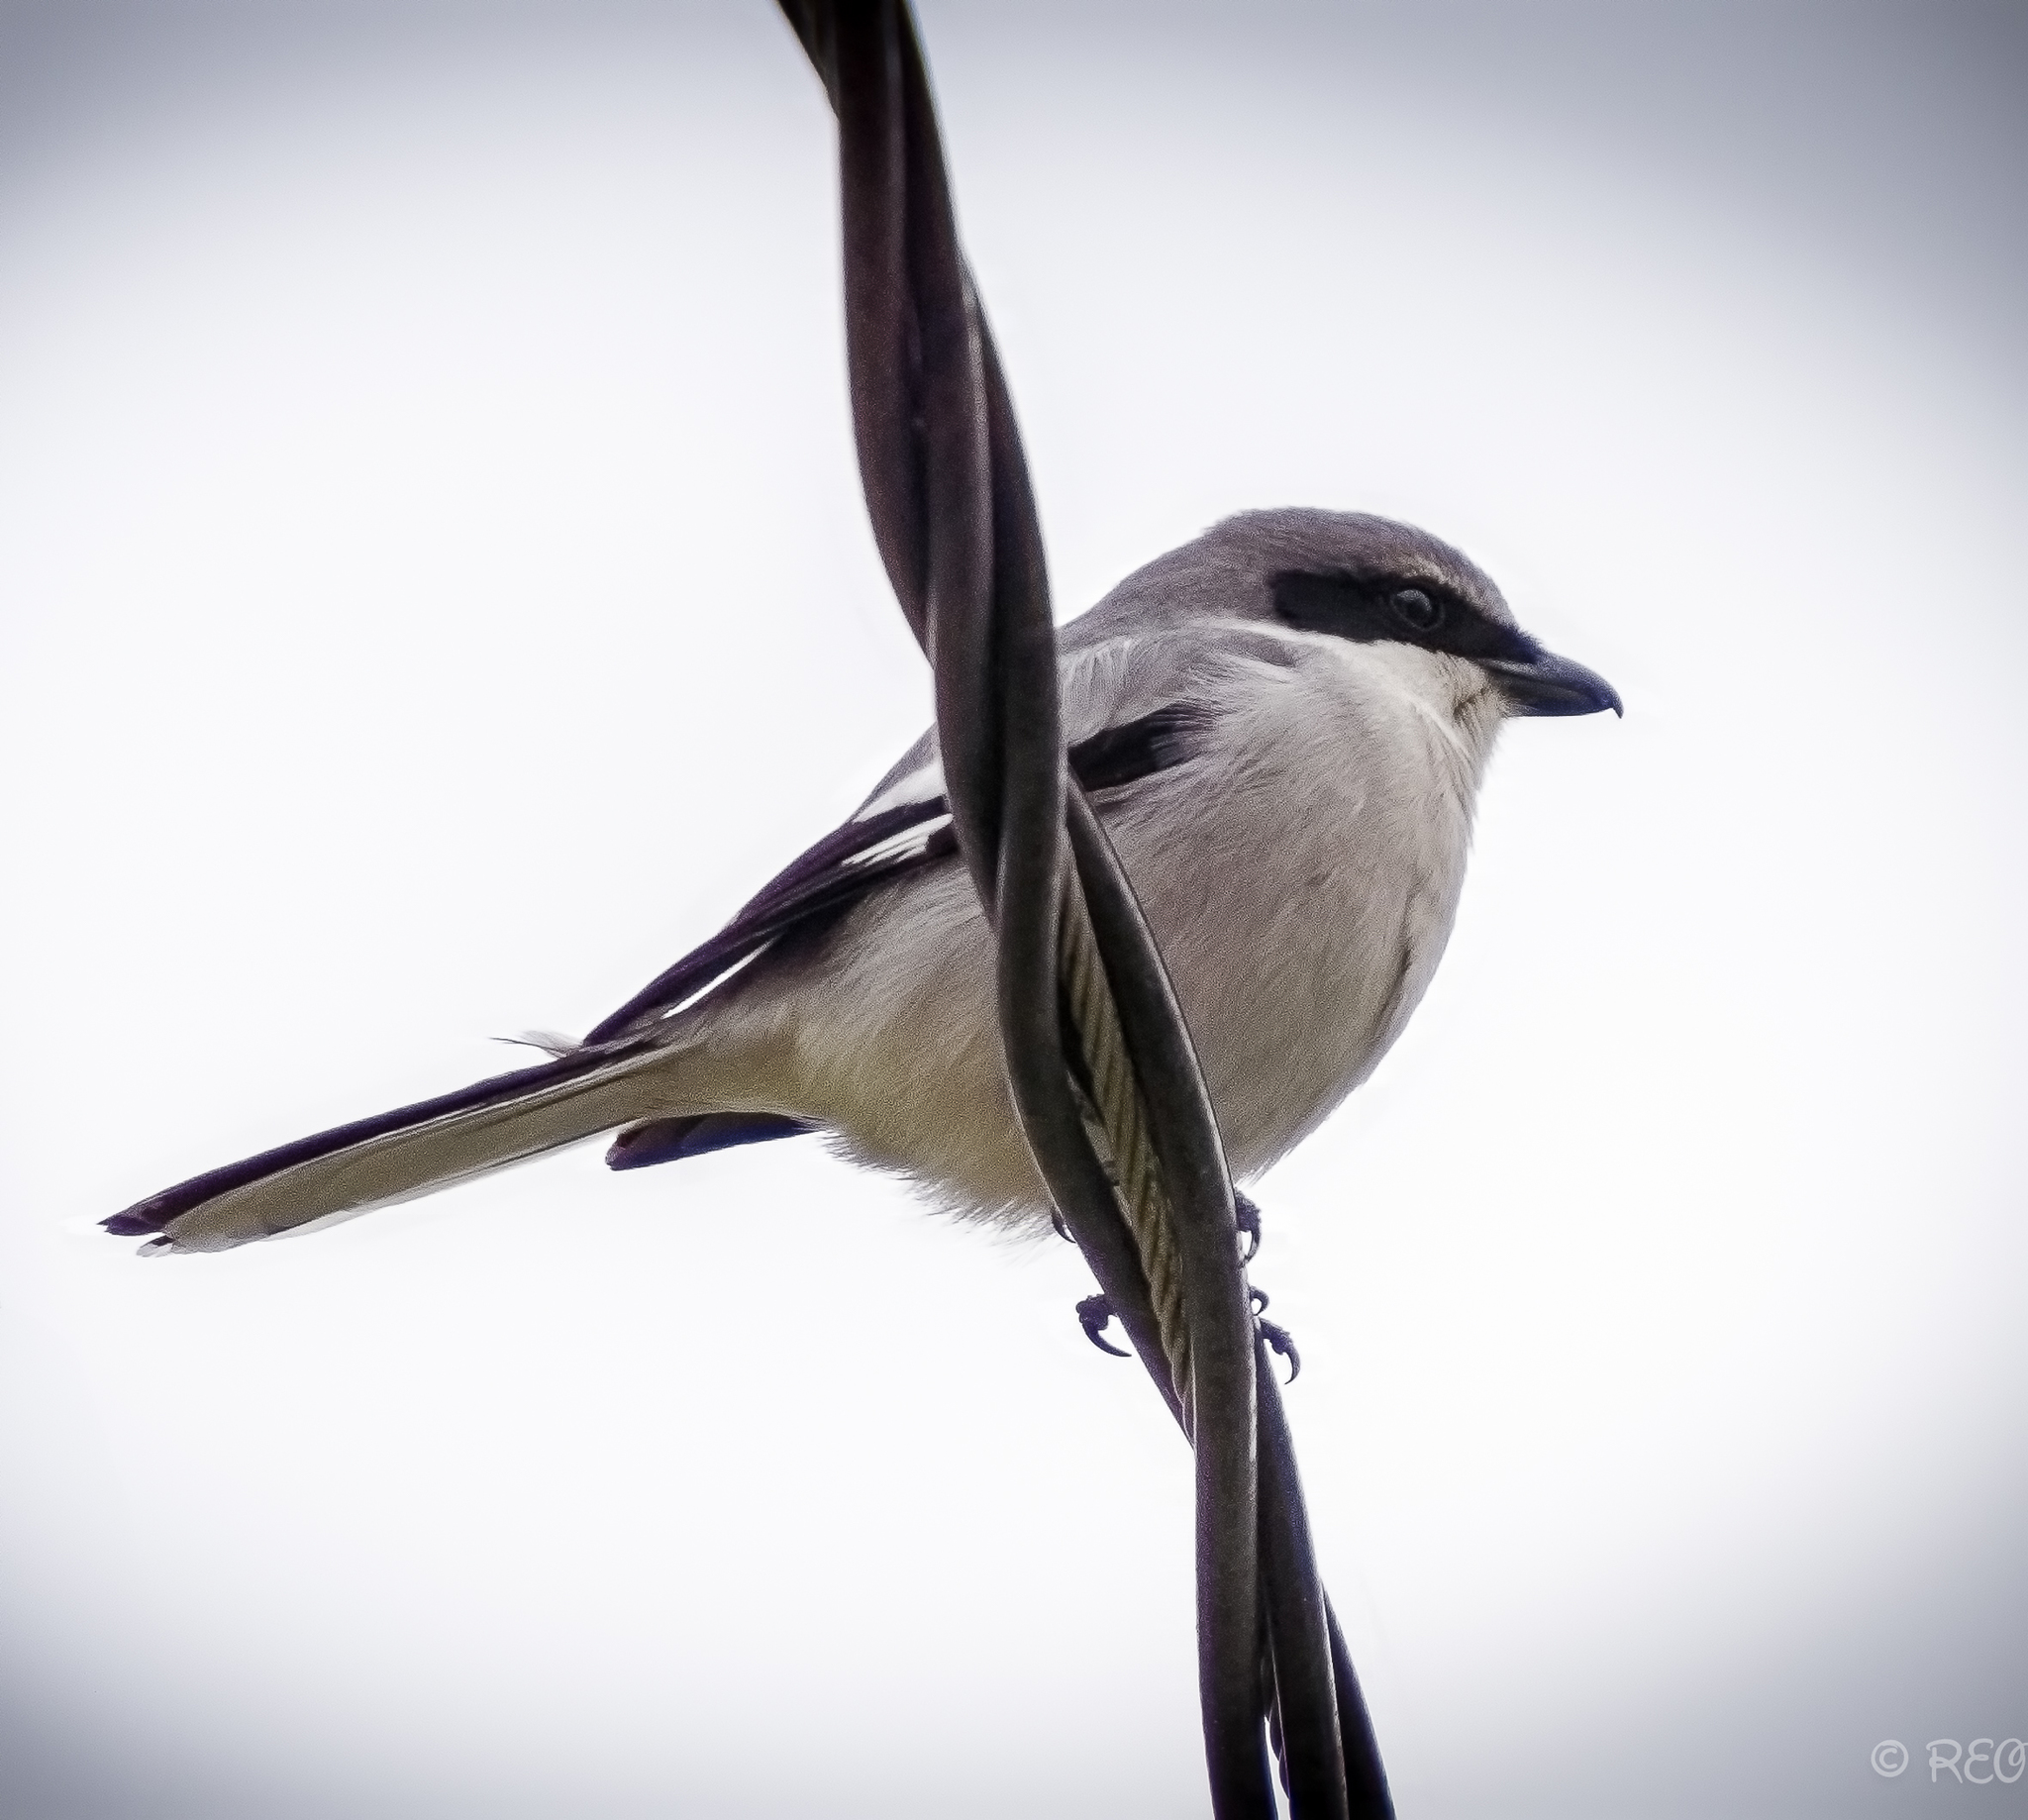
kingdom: Animalia
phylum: Chordata
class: Aves
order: Passeriformes
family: Laniidae
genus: Lanius
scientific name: Lanius ludovicianus
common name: Loggerhead shrike
